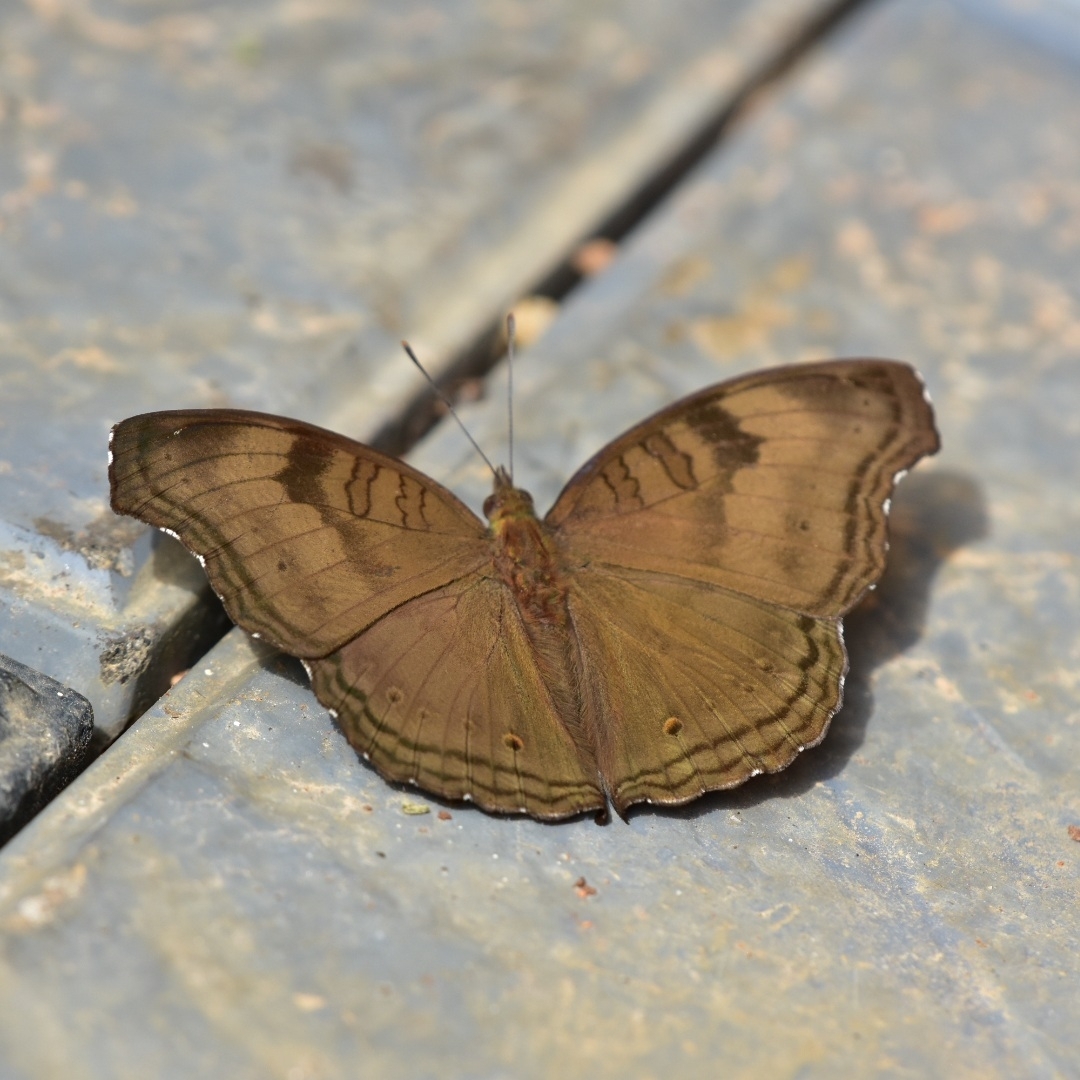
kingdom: Animalia
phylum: Arthropoda
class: Insecta
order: Lepidoptera
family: Nymphalidae
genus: Junonia
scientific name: Junonia iphita
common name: Chocolate pansy
